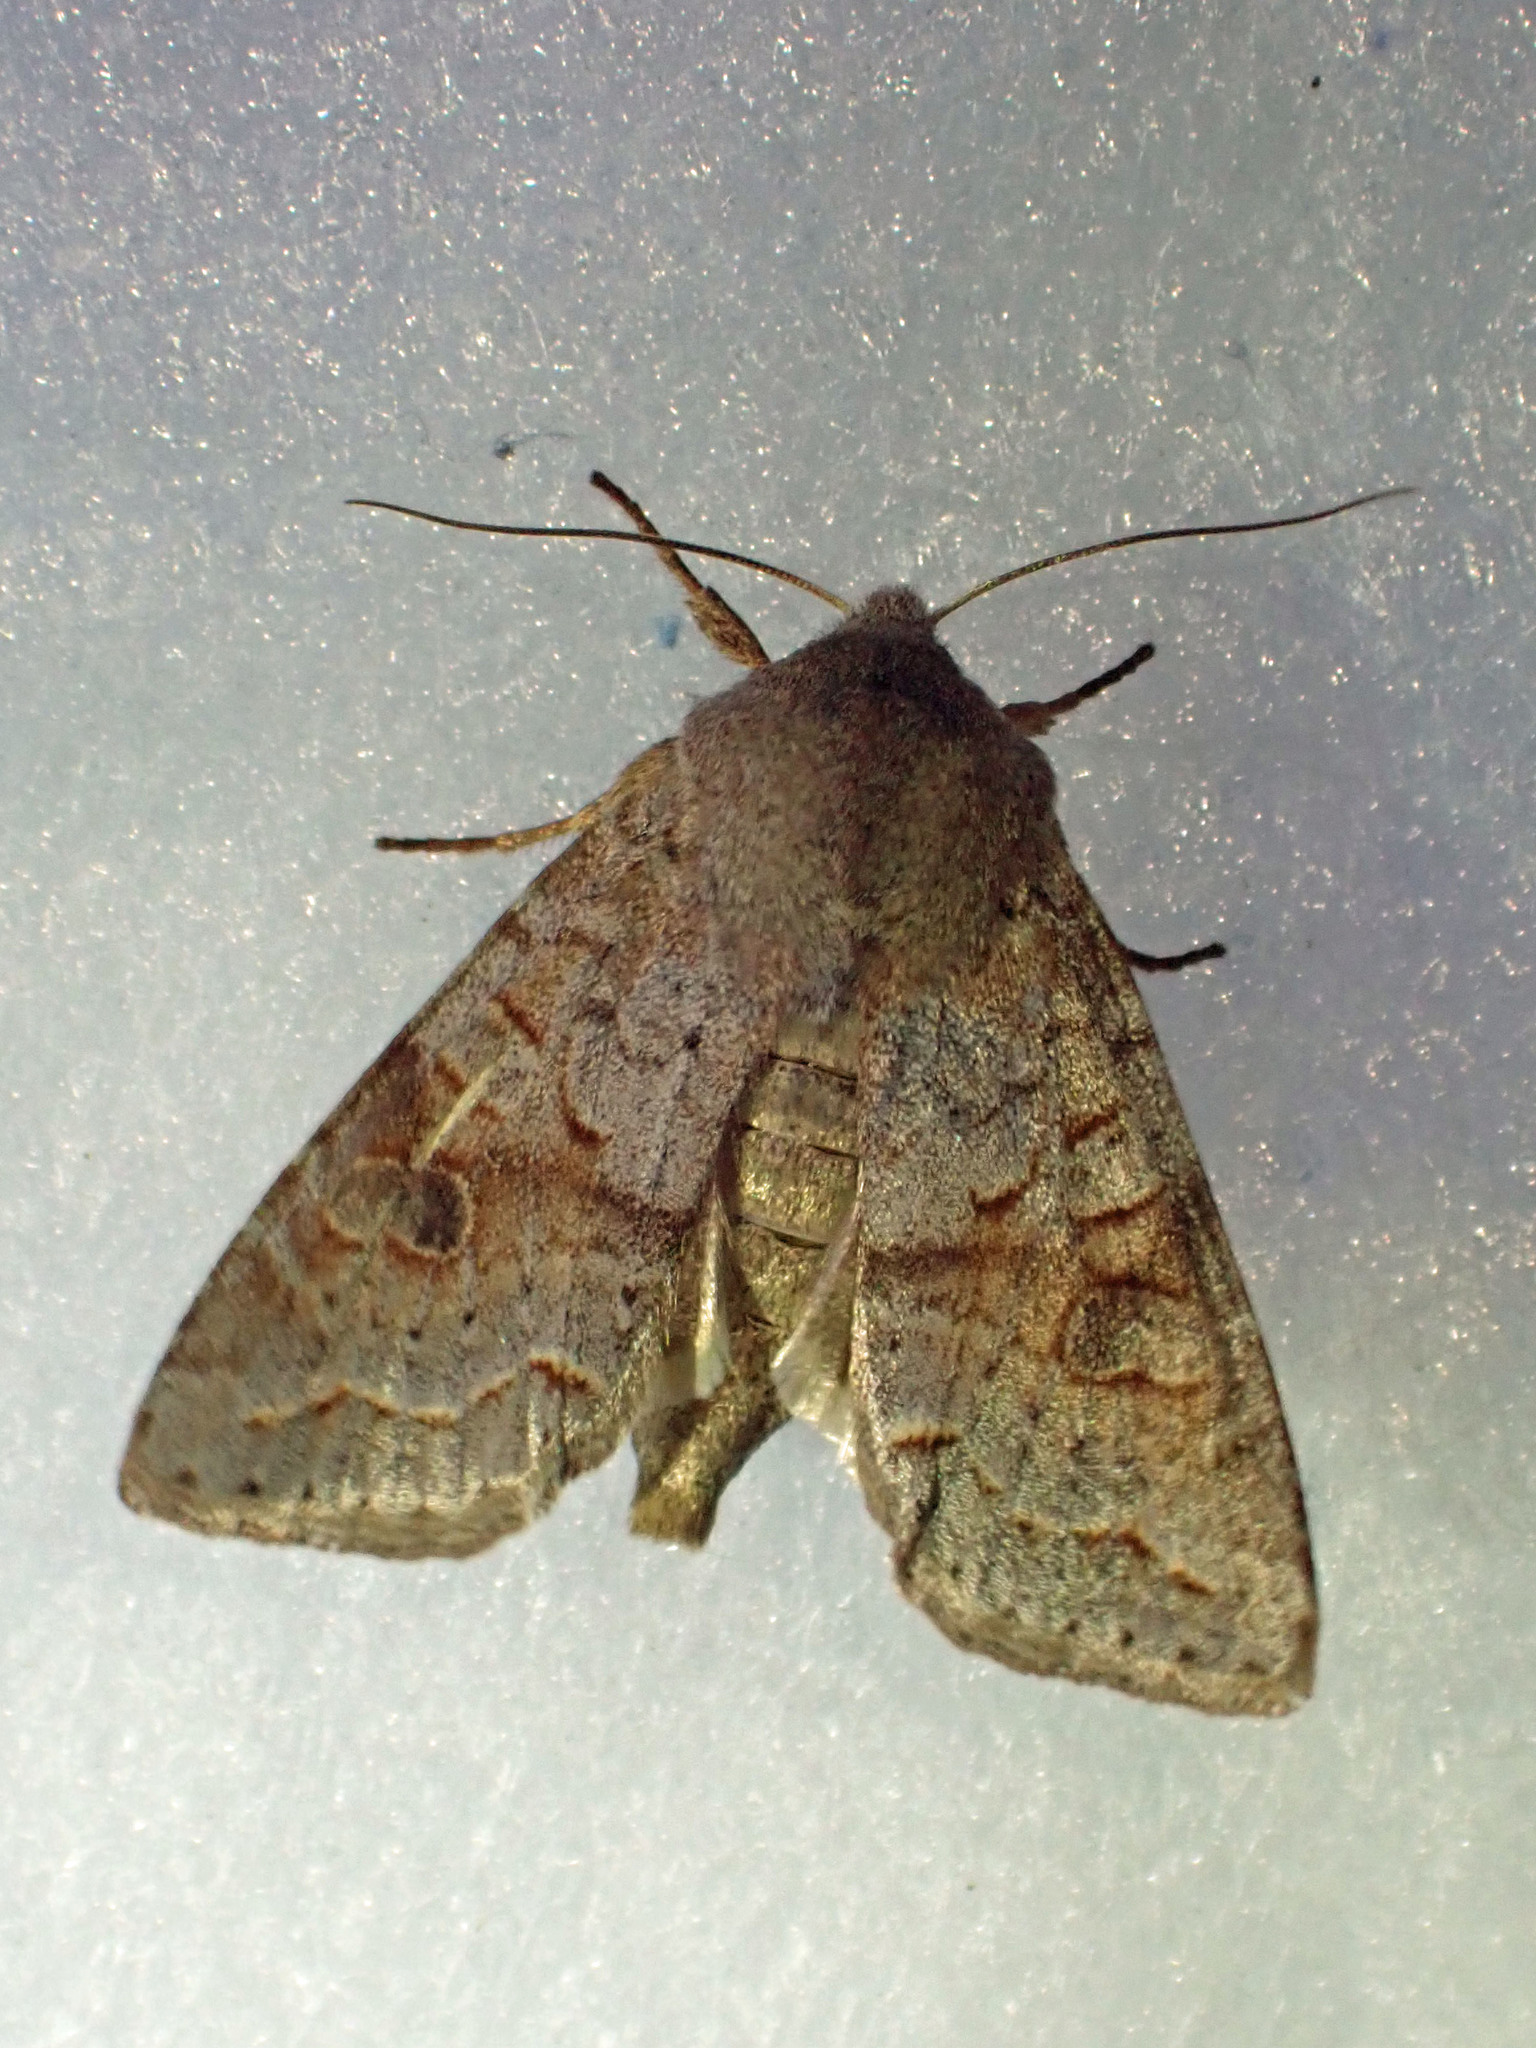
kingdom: Animalia
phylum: Arthropoda
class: Insecta
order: Lepidoptera
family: Noctuidae
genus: Orthosia
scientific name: Orthosia revicta
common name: Rusty whitesided caterpillar
